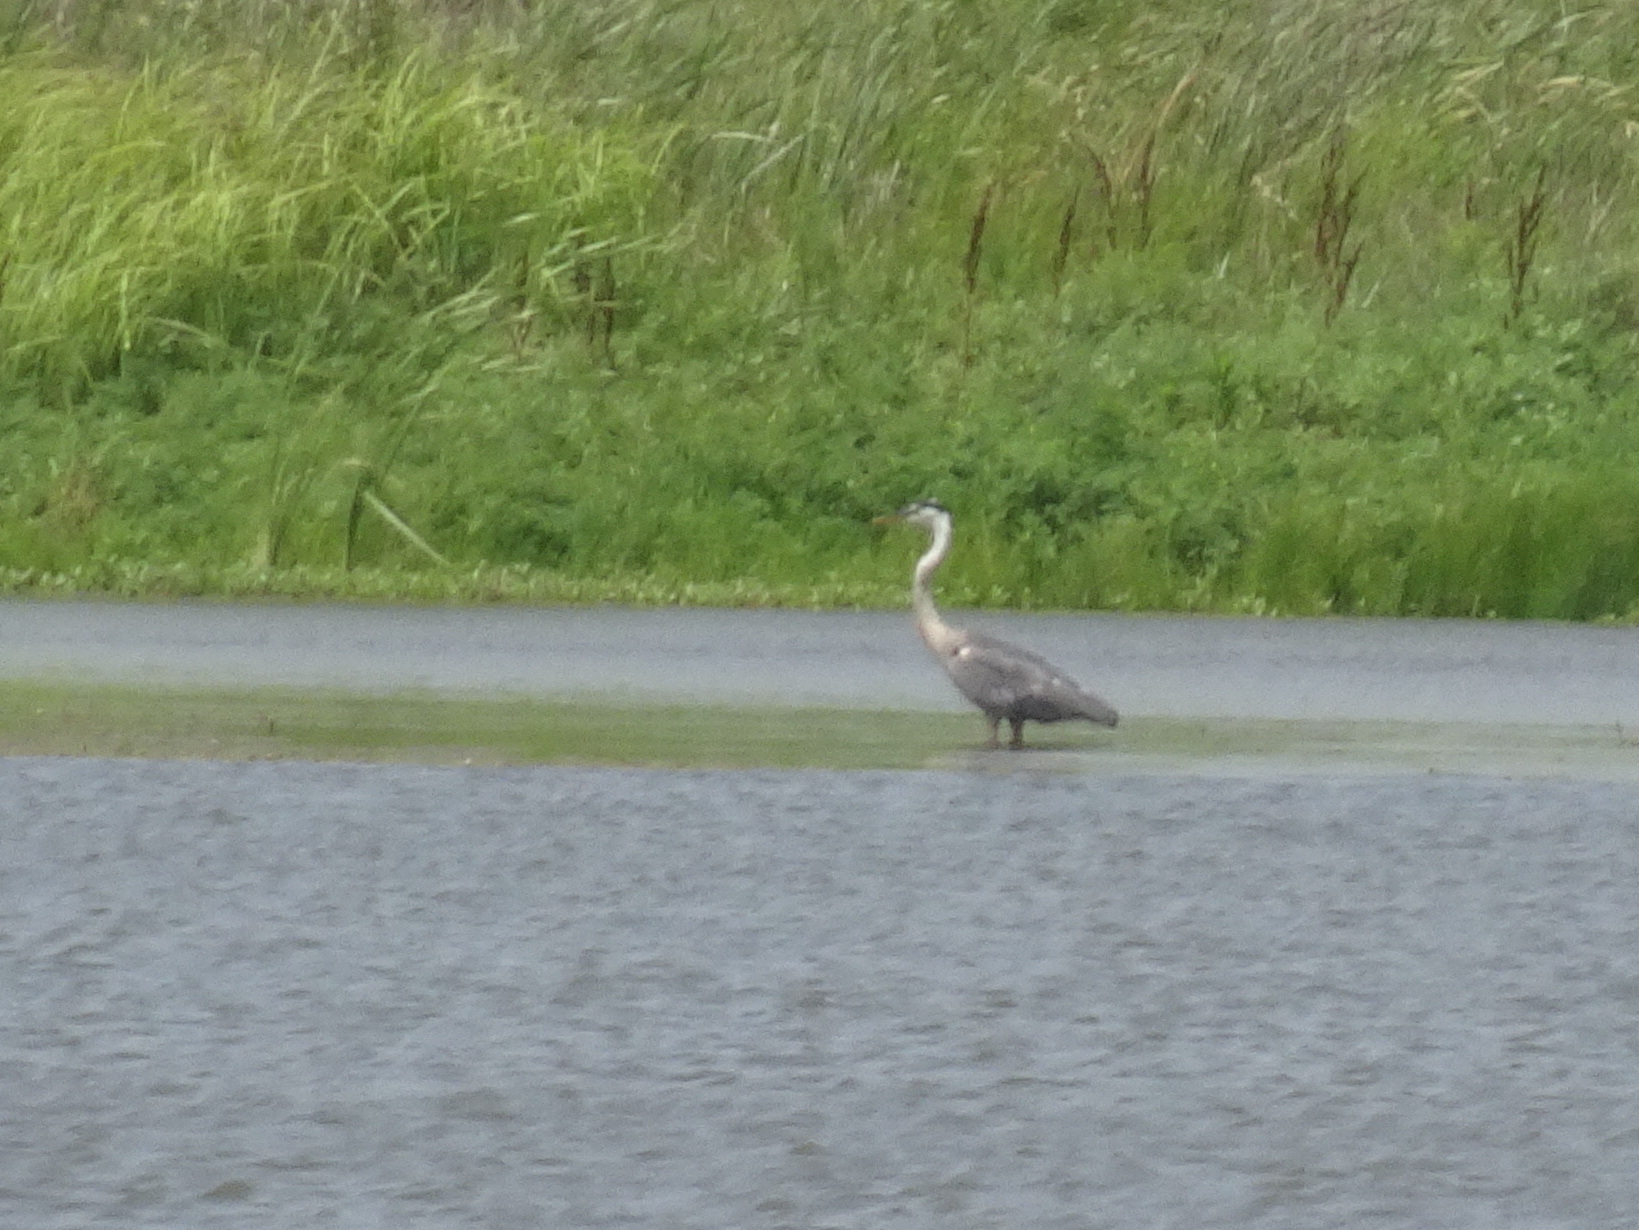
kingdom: Animalia
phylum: Chordata
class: Aves
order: Pelecaniformes
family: Ardeidae
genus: Ardea
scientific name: Ardea herodias
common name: Great blue heron
